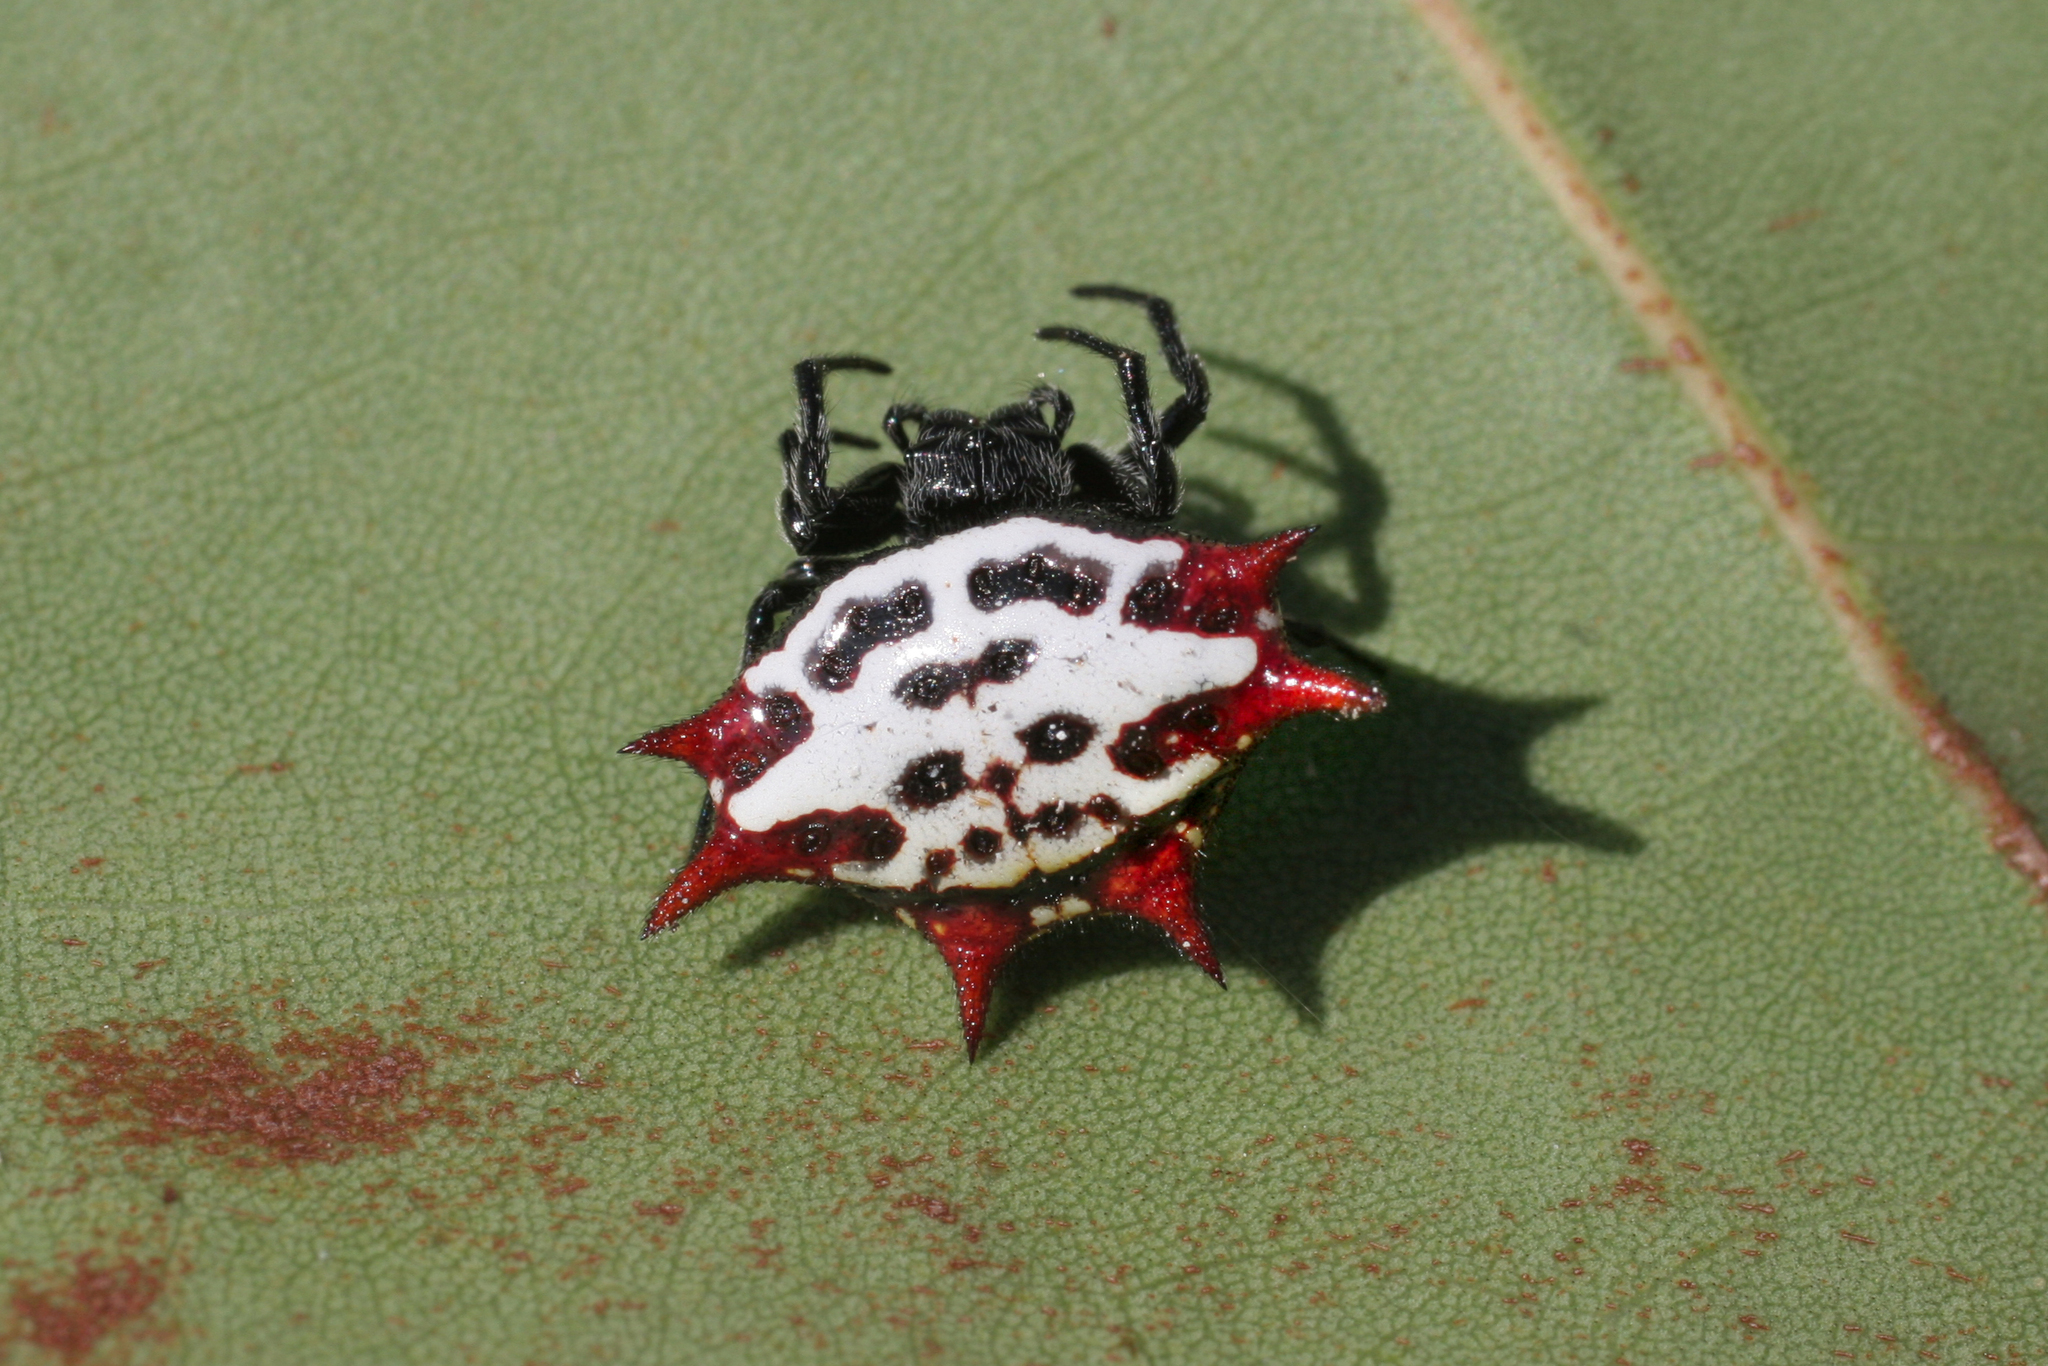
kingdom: Animalia
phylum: Arthropoda
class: Arachnida
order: Araneae
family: Araneidae
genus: Gasteracantha
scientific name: Gasteracantha cancriformis
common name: Orb weavers
